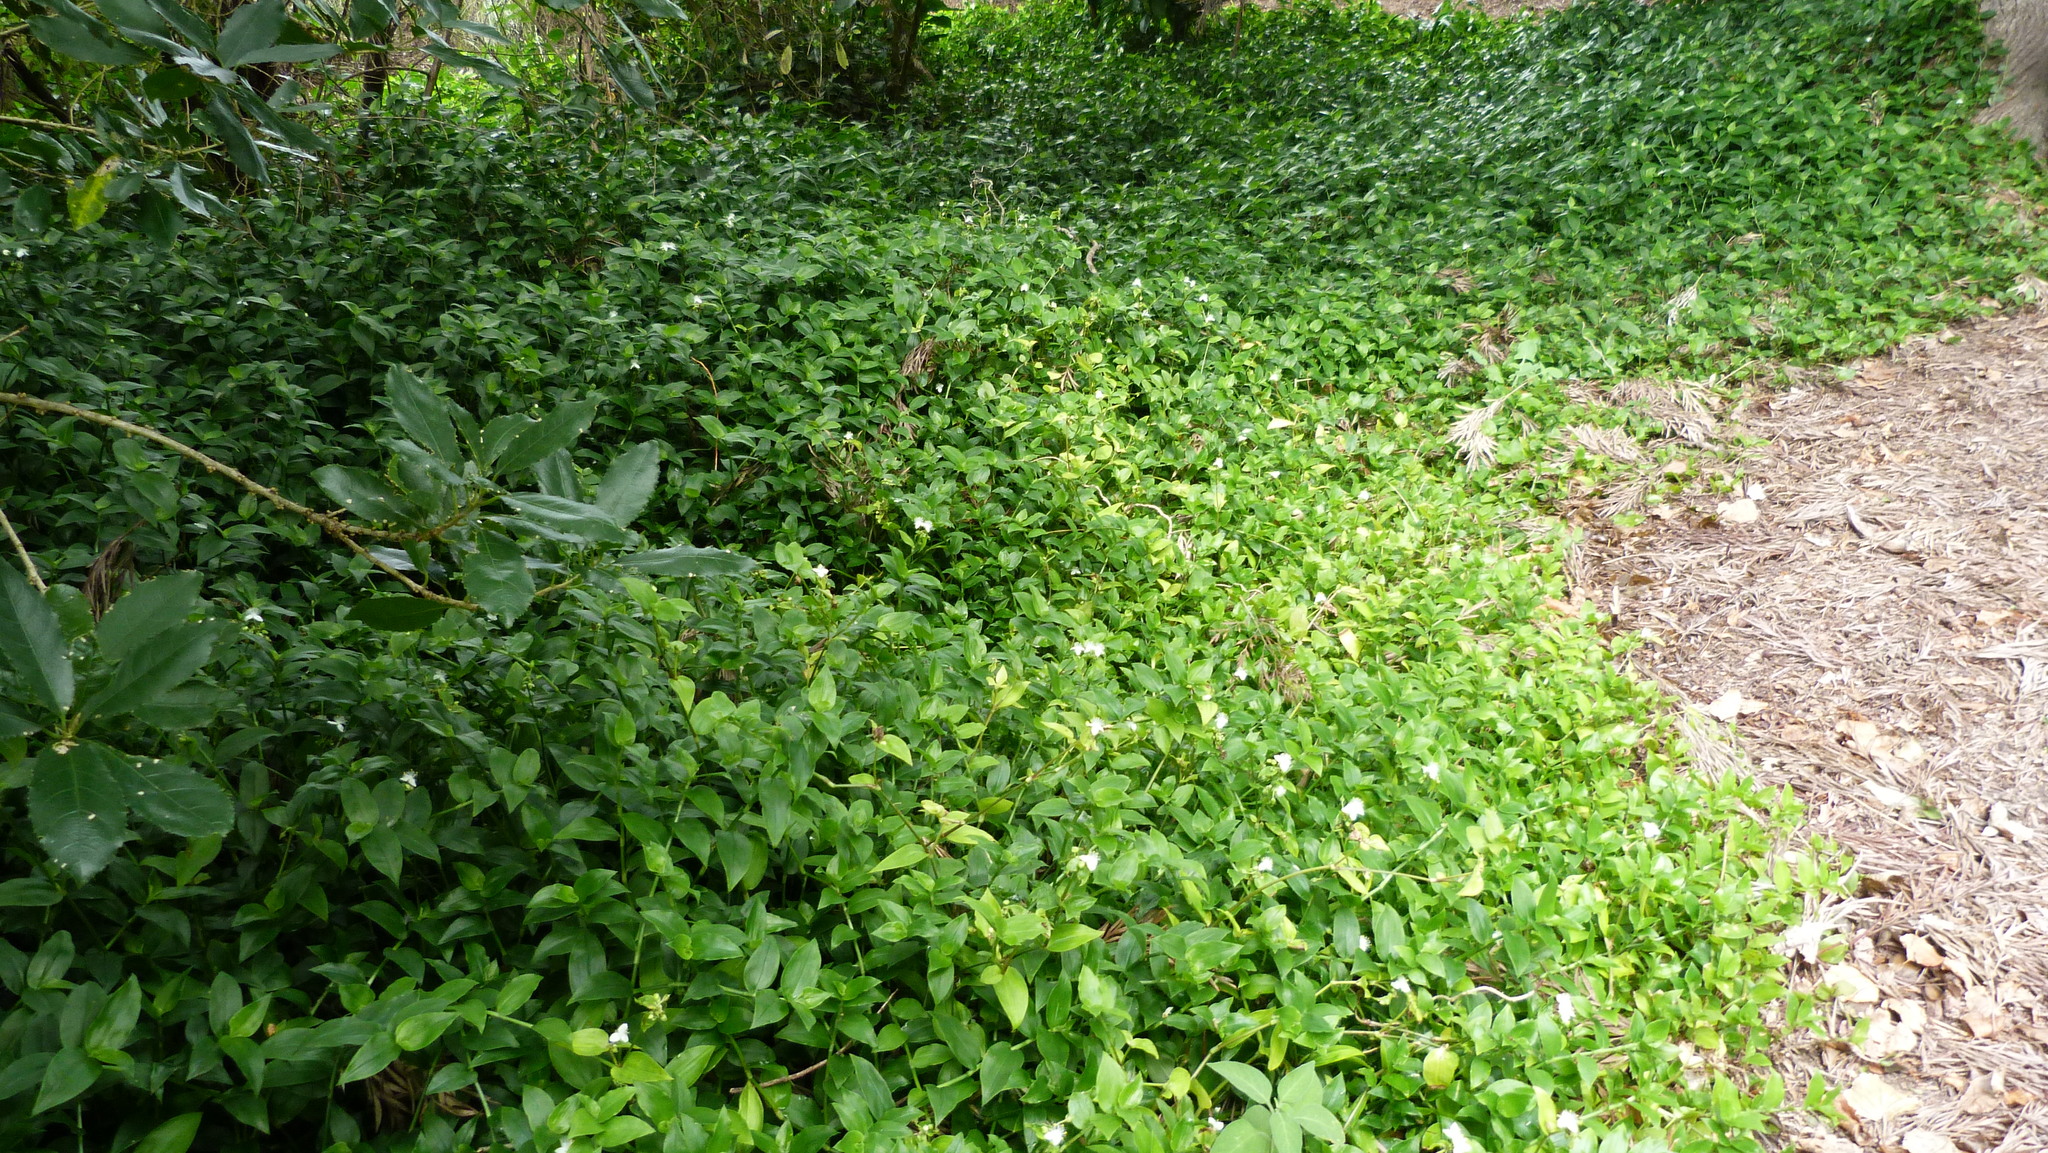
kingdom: Plantae
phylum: Tracheophyta
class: Liliopsida
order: Commelinales
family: Commelinaceae
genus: Tradescantia
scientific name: Tradescantia fluminensis
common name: Wandering-jew
